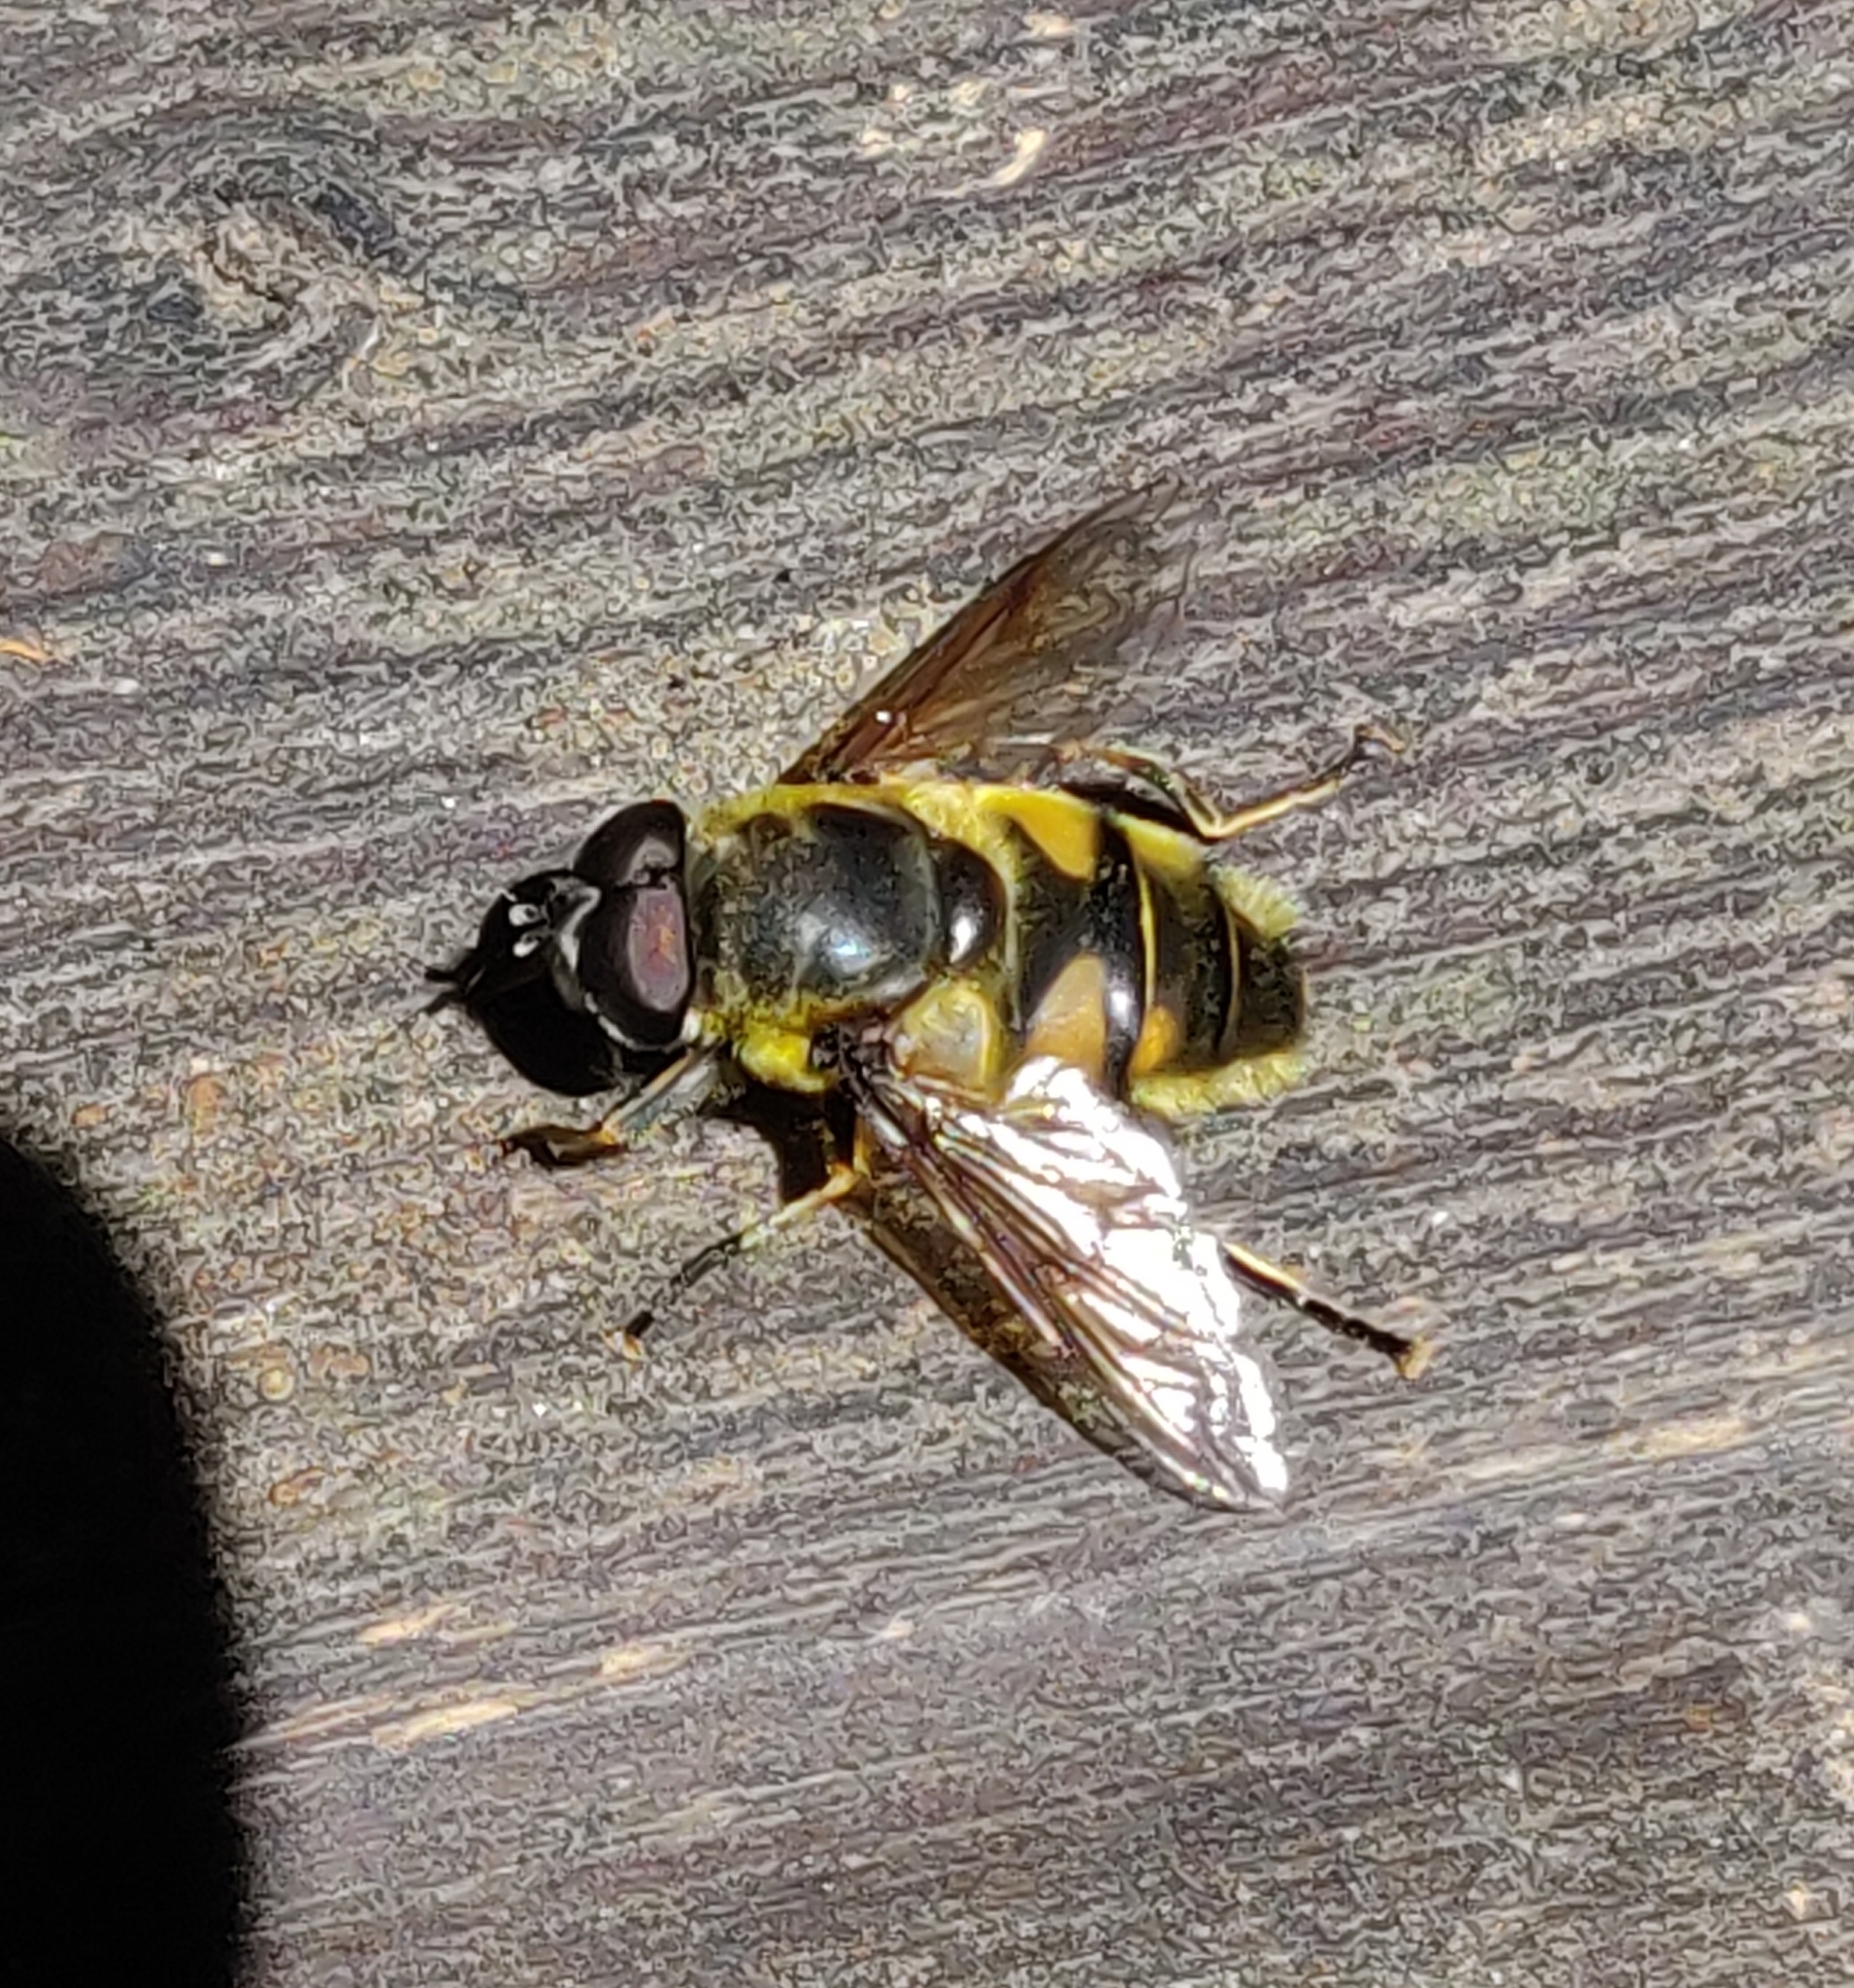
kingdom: Animalia
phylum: Arthropoda
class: Insecta
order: Diptera
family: Syrphidae
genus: Myathropa
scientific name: Myathropa florea
